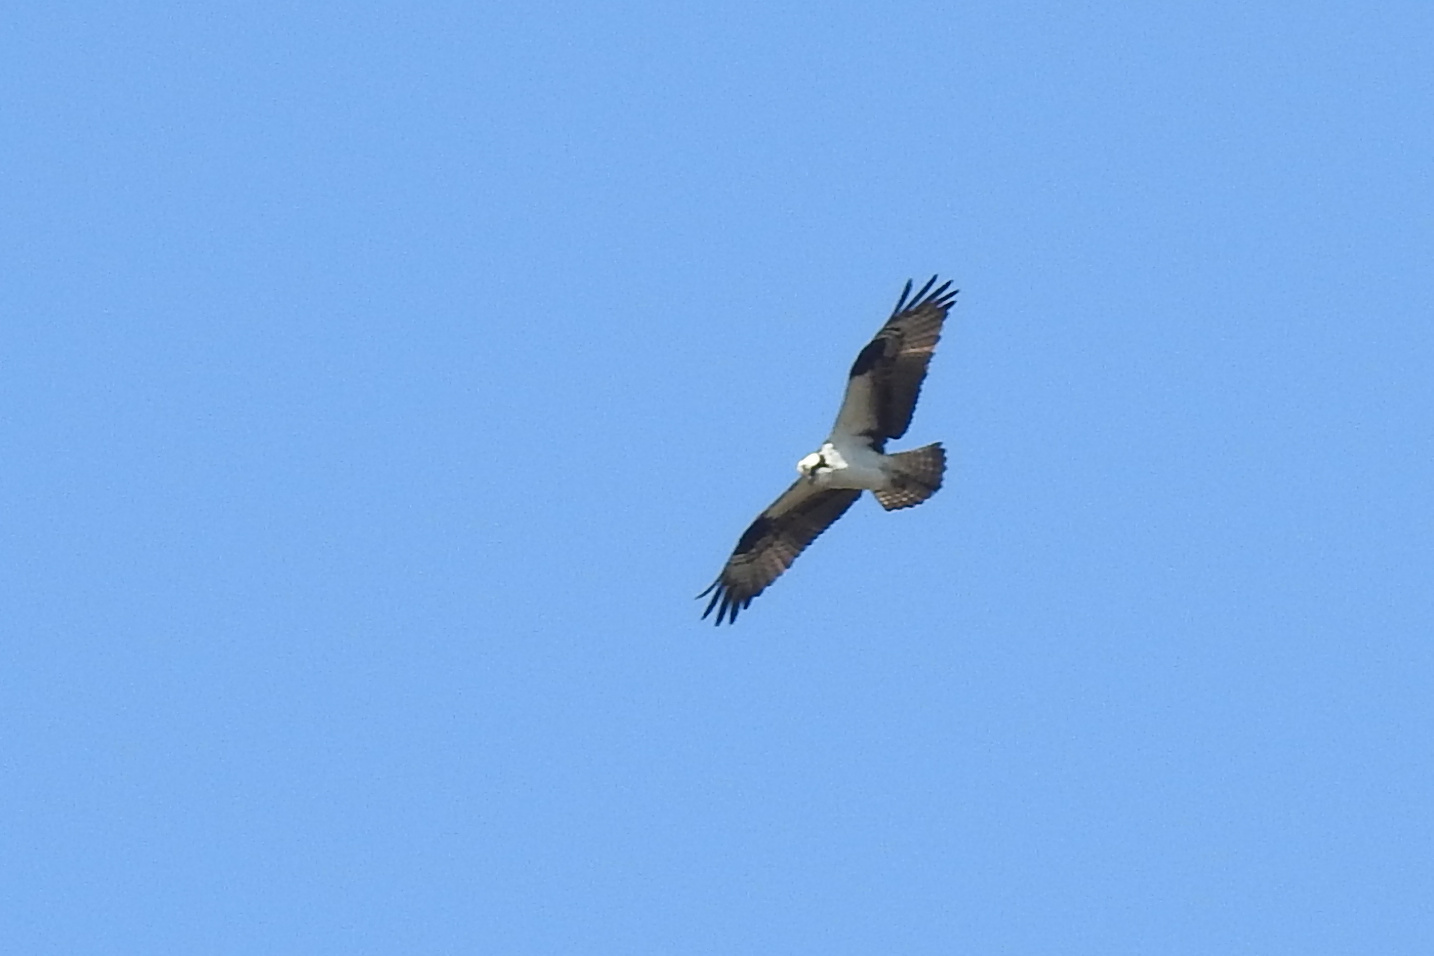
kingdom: Animalia
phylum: Chordata
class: Aves
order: Accipitriformes
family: Pandionidae
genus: Pandion
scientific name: Pandion haliaetus
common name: Osprey
